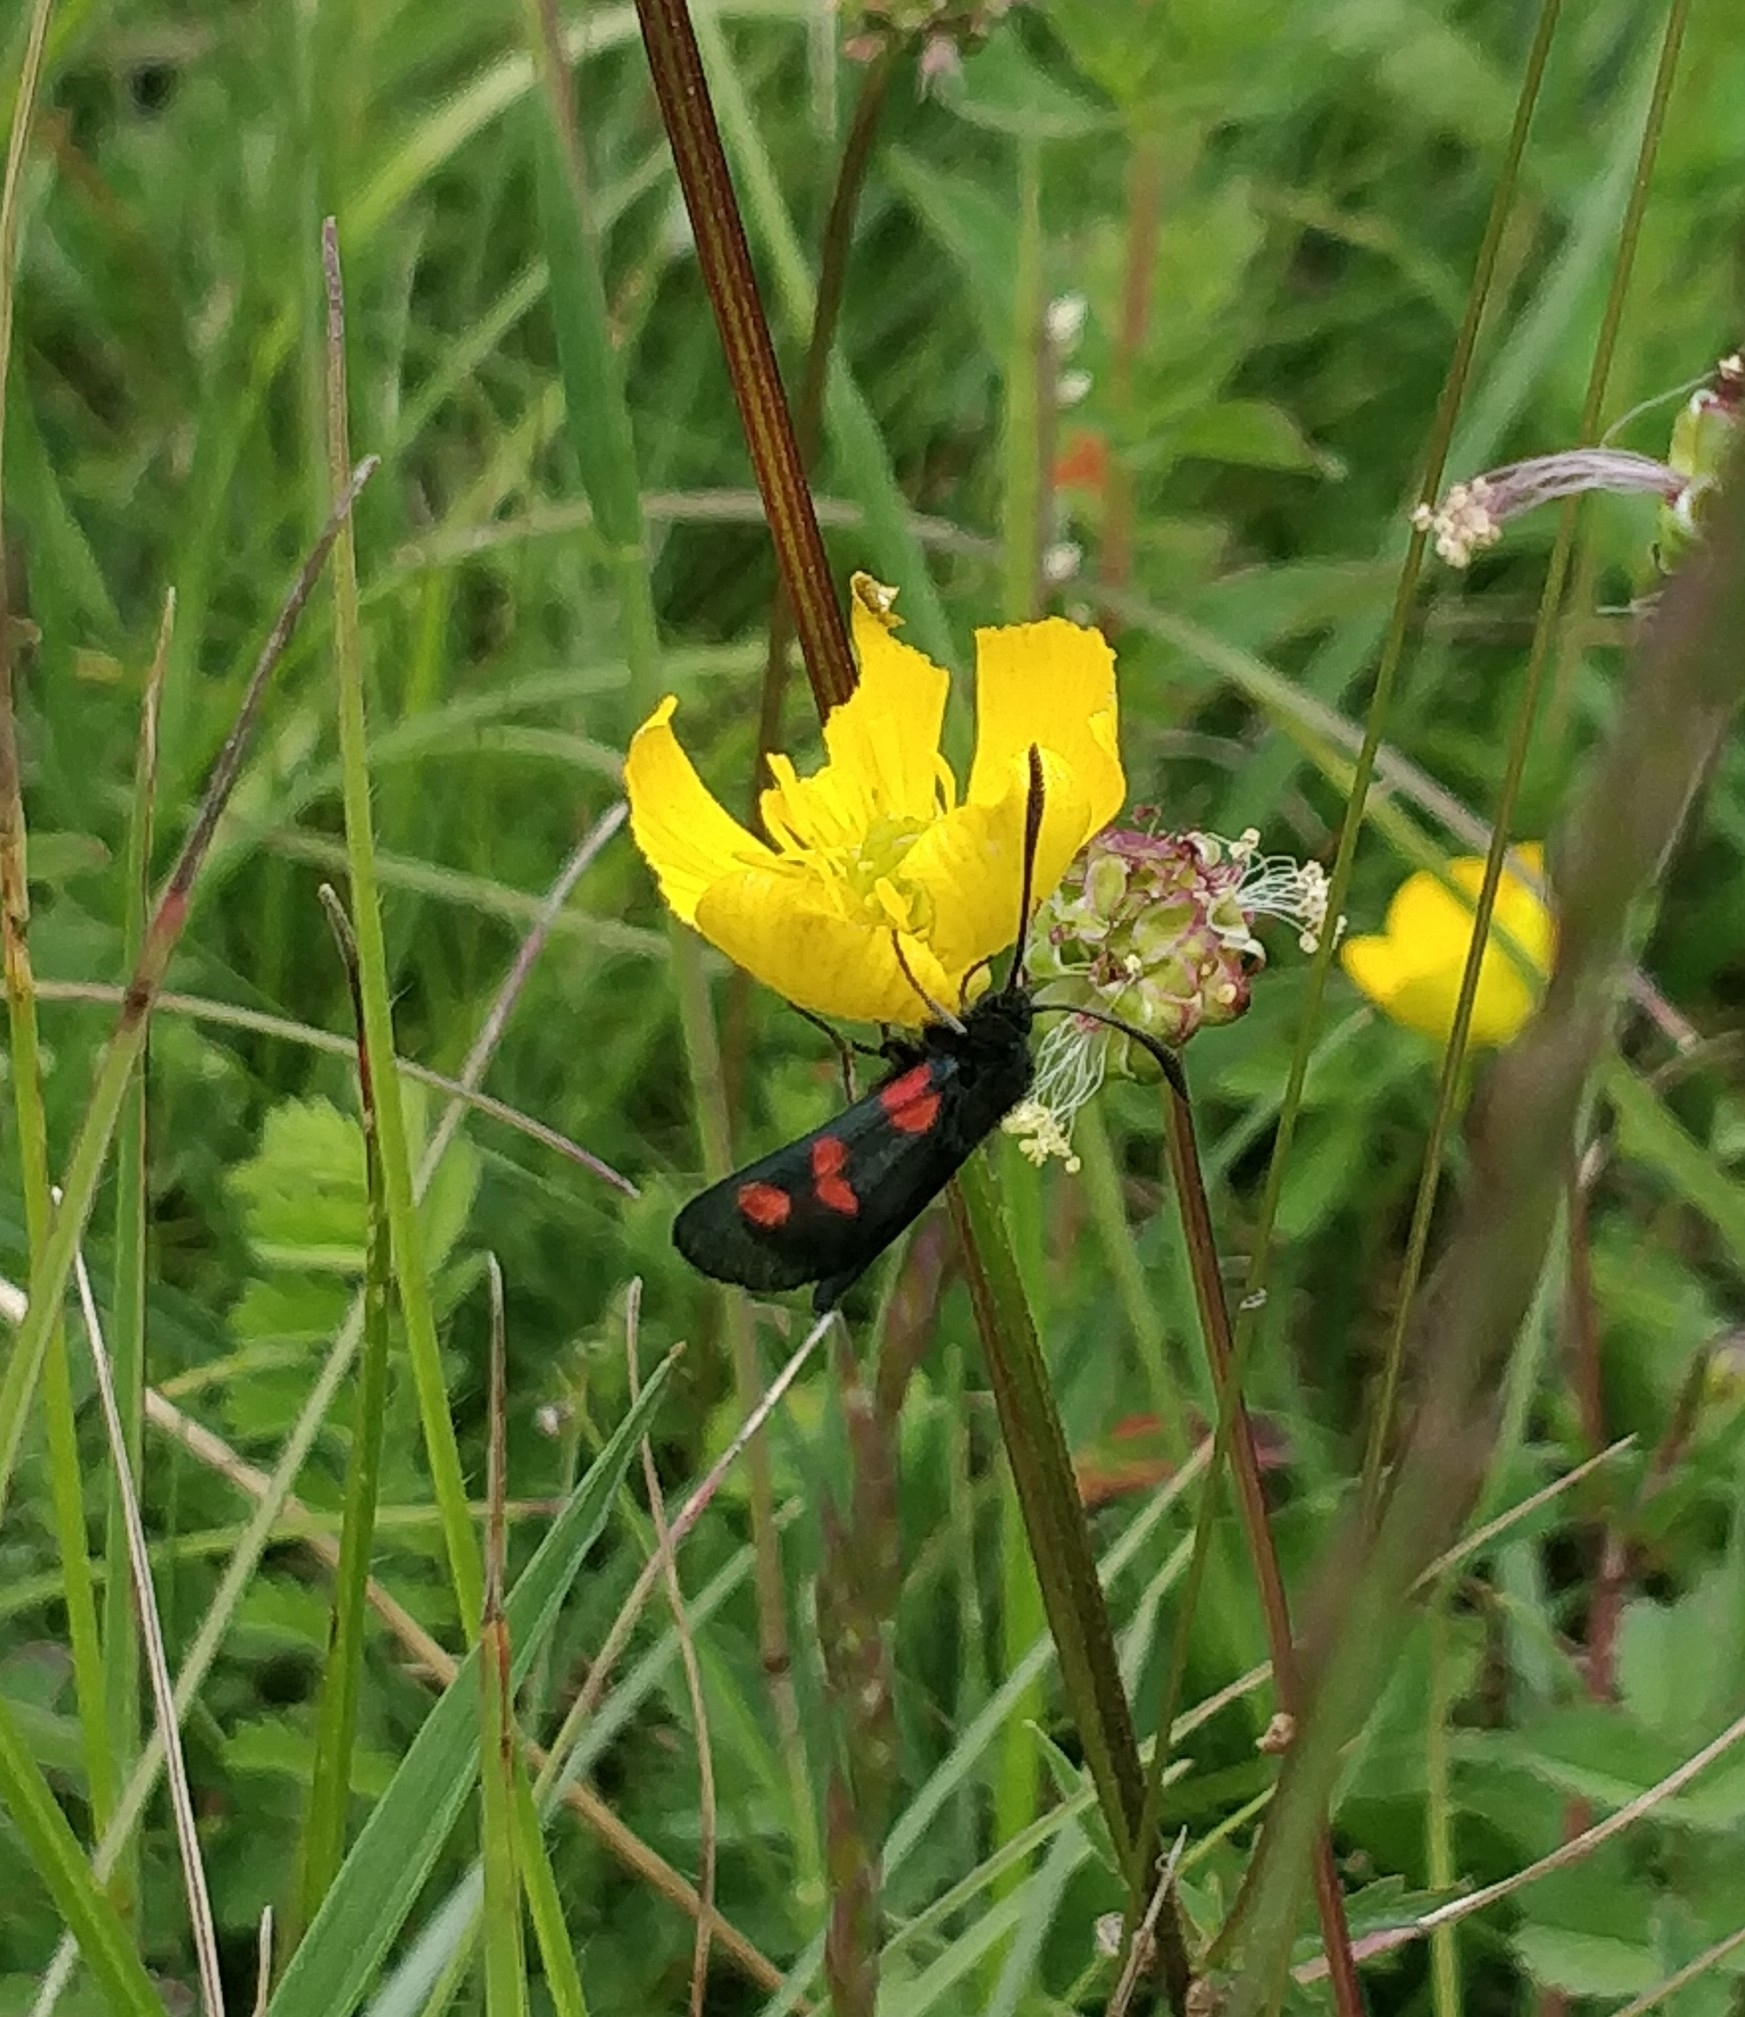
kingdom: Animalia
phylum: Arthropoda
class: Insecta
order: Lepidoptera
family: Zygaenidae
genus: Zygaena
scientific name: Zygaena lonicerae
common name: Narrow-bordered five-spot burnet
